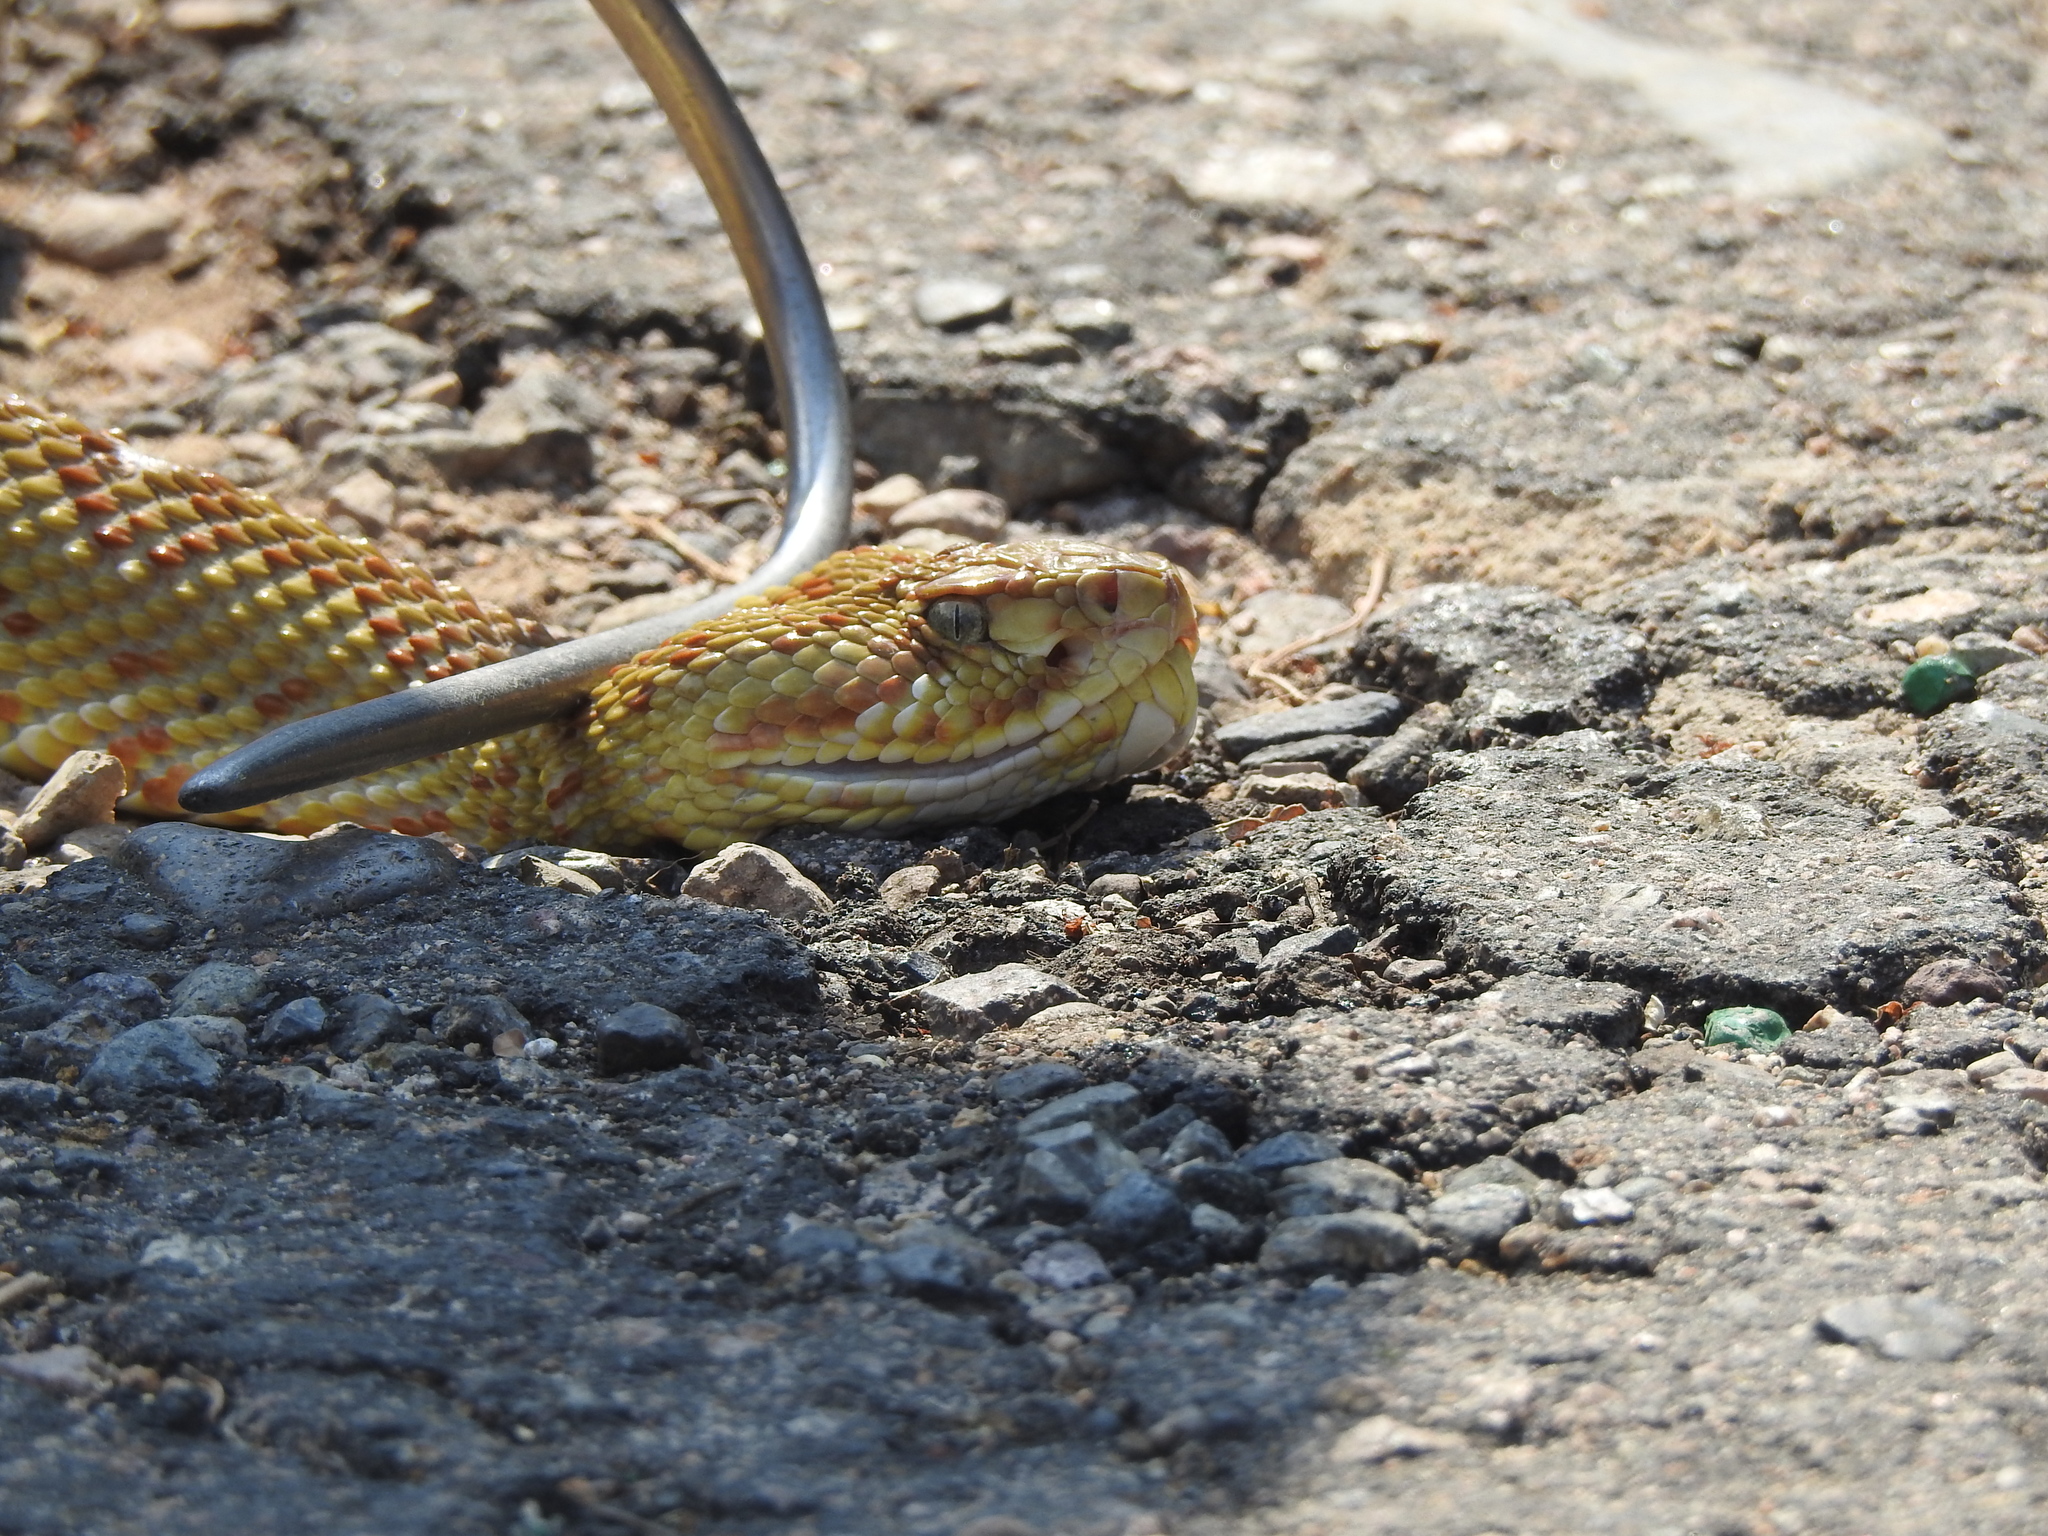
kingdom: Animalia
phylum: Chordata
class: Squamata
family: Viperidae
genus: Crotalus
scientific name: Crotalus basiliscus
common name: Basilisk rattlesnake
